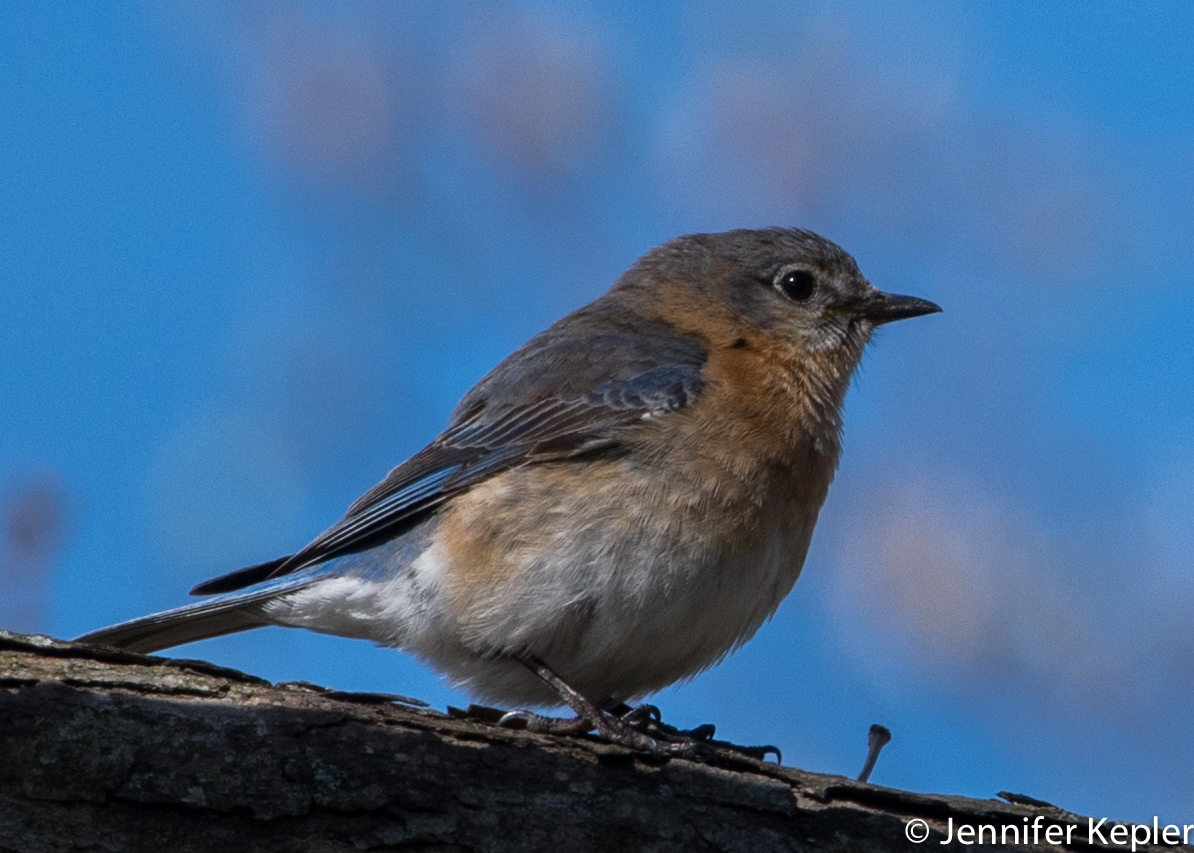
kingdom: Animalia
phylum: Chordata
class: Aves
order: Passeriformes
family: Turdidae
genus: Sialia
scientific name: Sialia sialis
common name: Eastern bluebird
